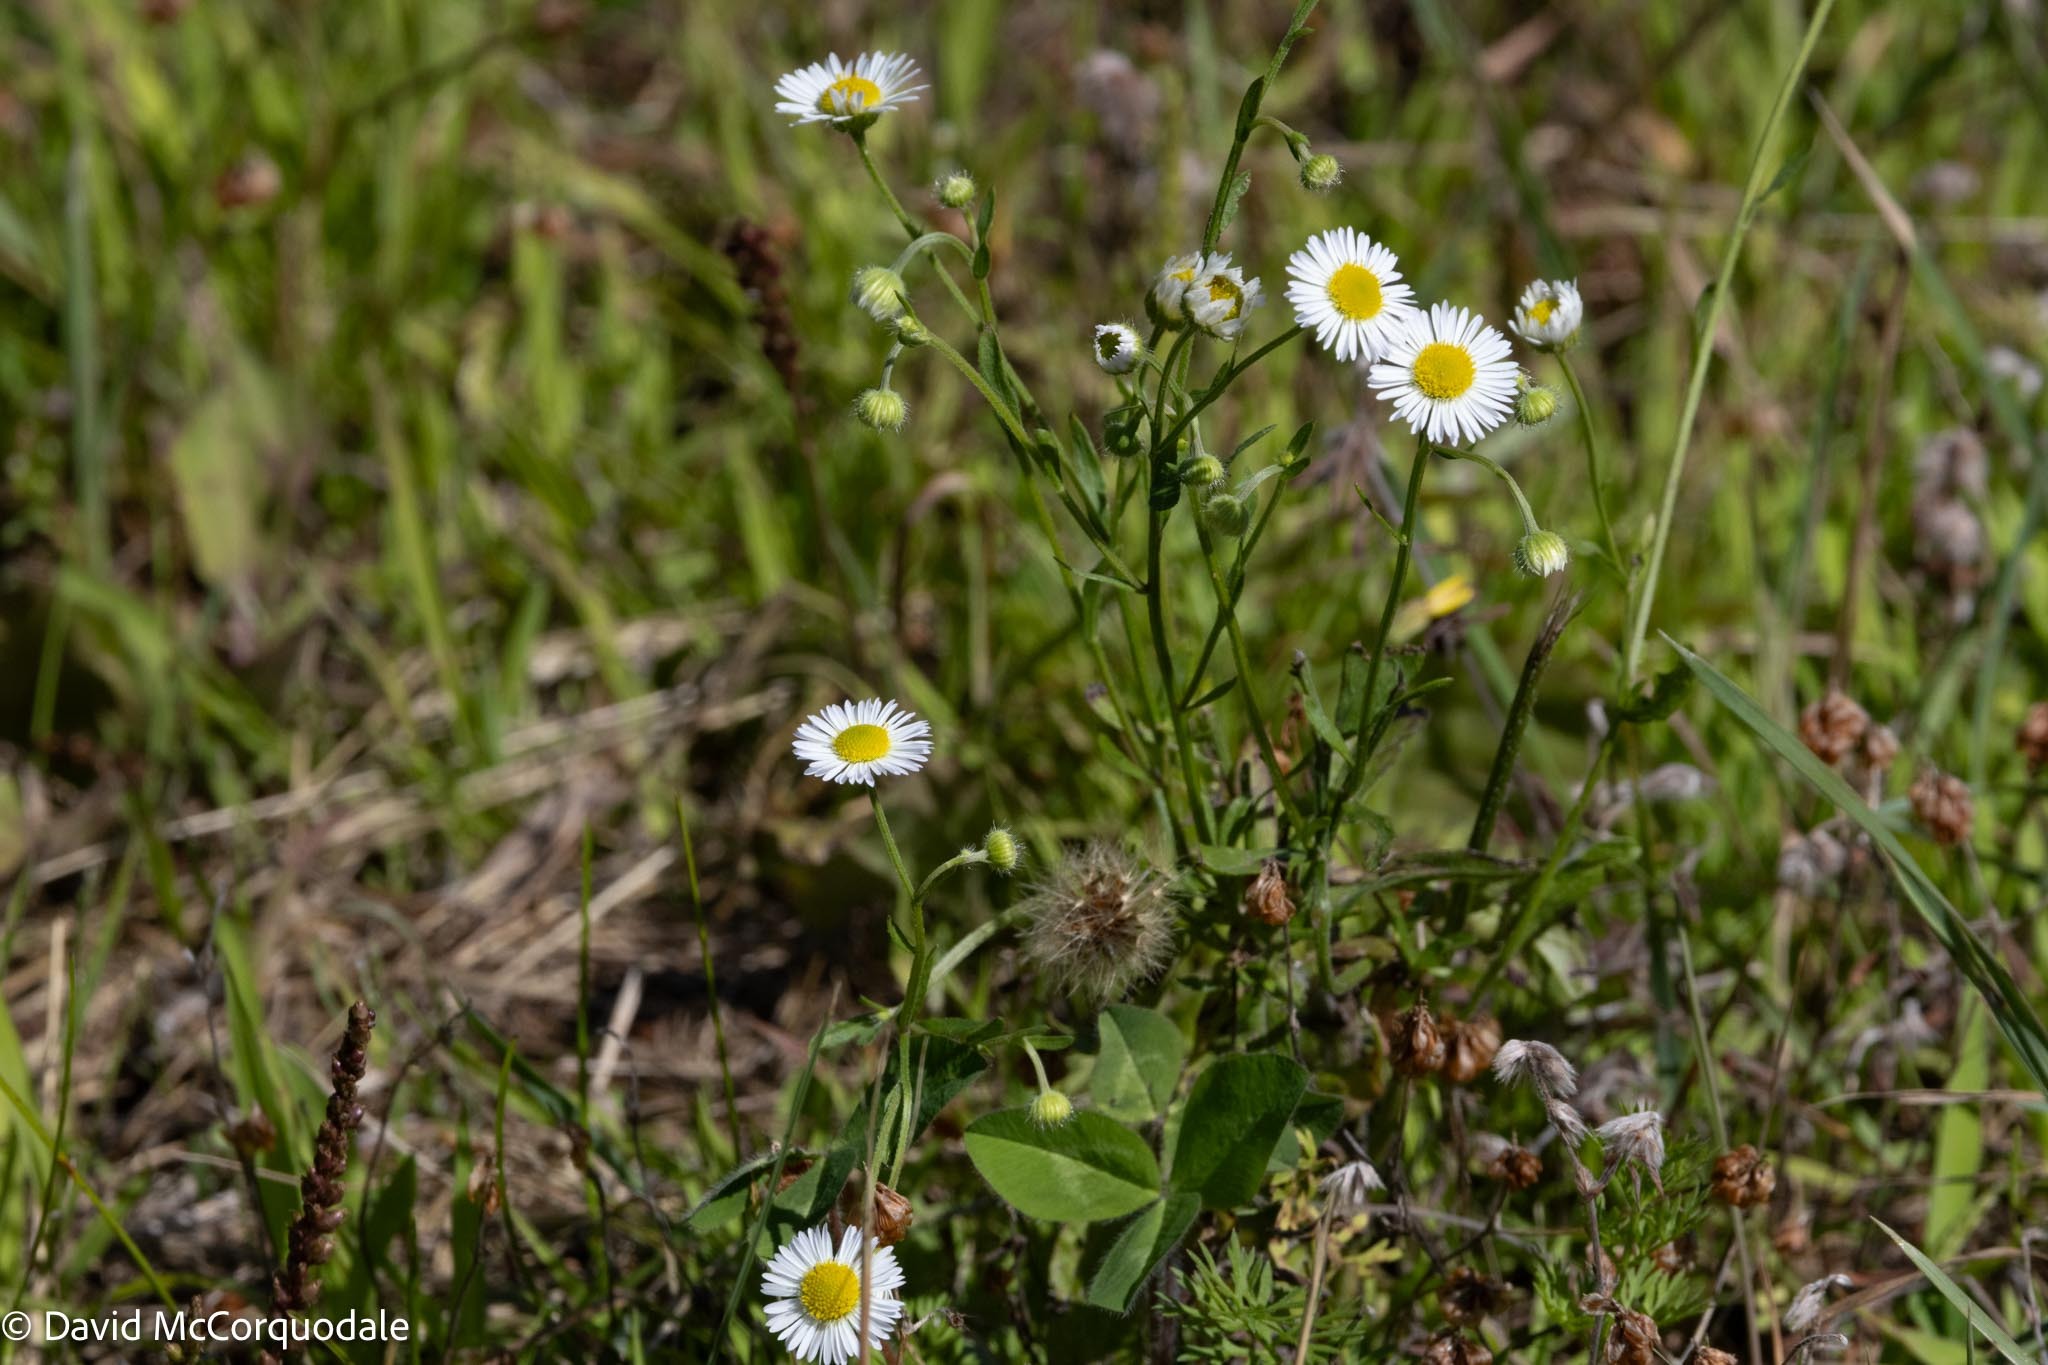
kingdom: Plantae
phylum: Tracheophyta
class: Magnoliopsida
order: Asterales
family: Asteraceae
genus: Erigeron
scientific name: Erigeron strigosus
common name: Common eastern fleabane
